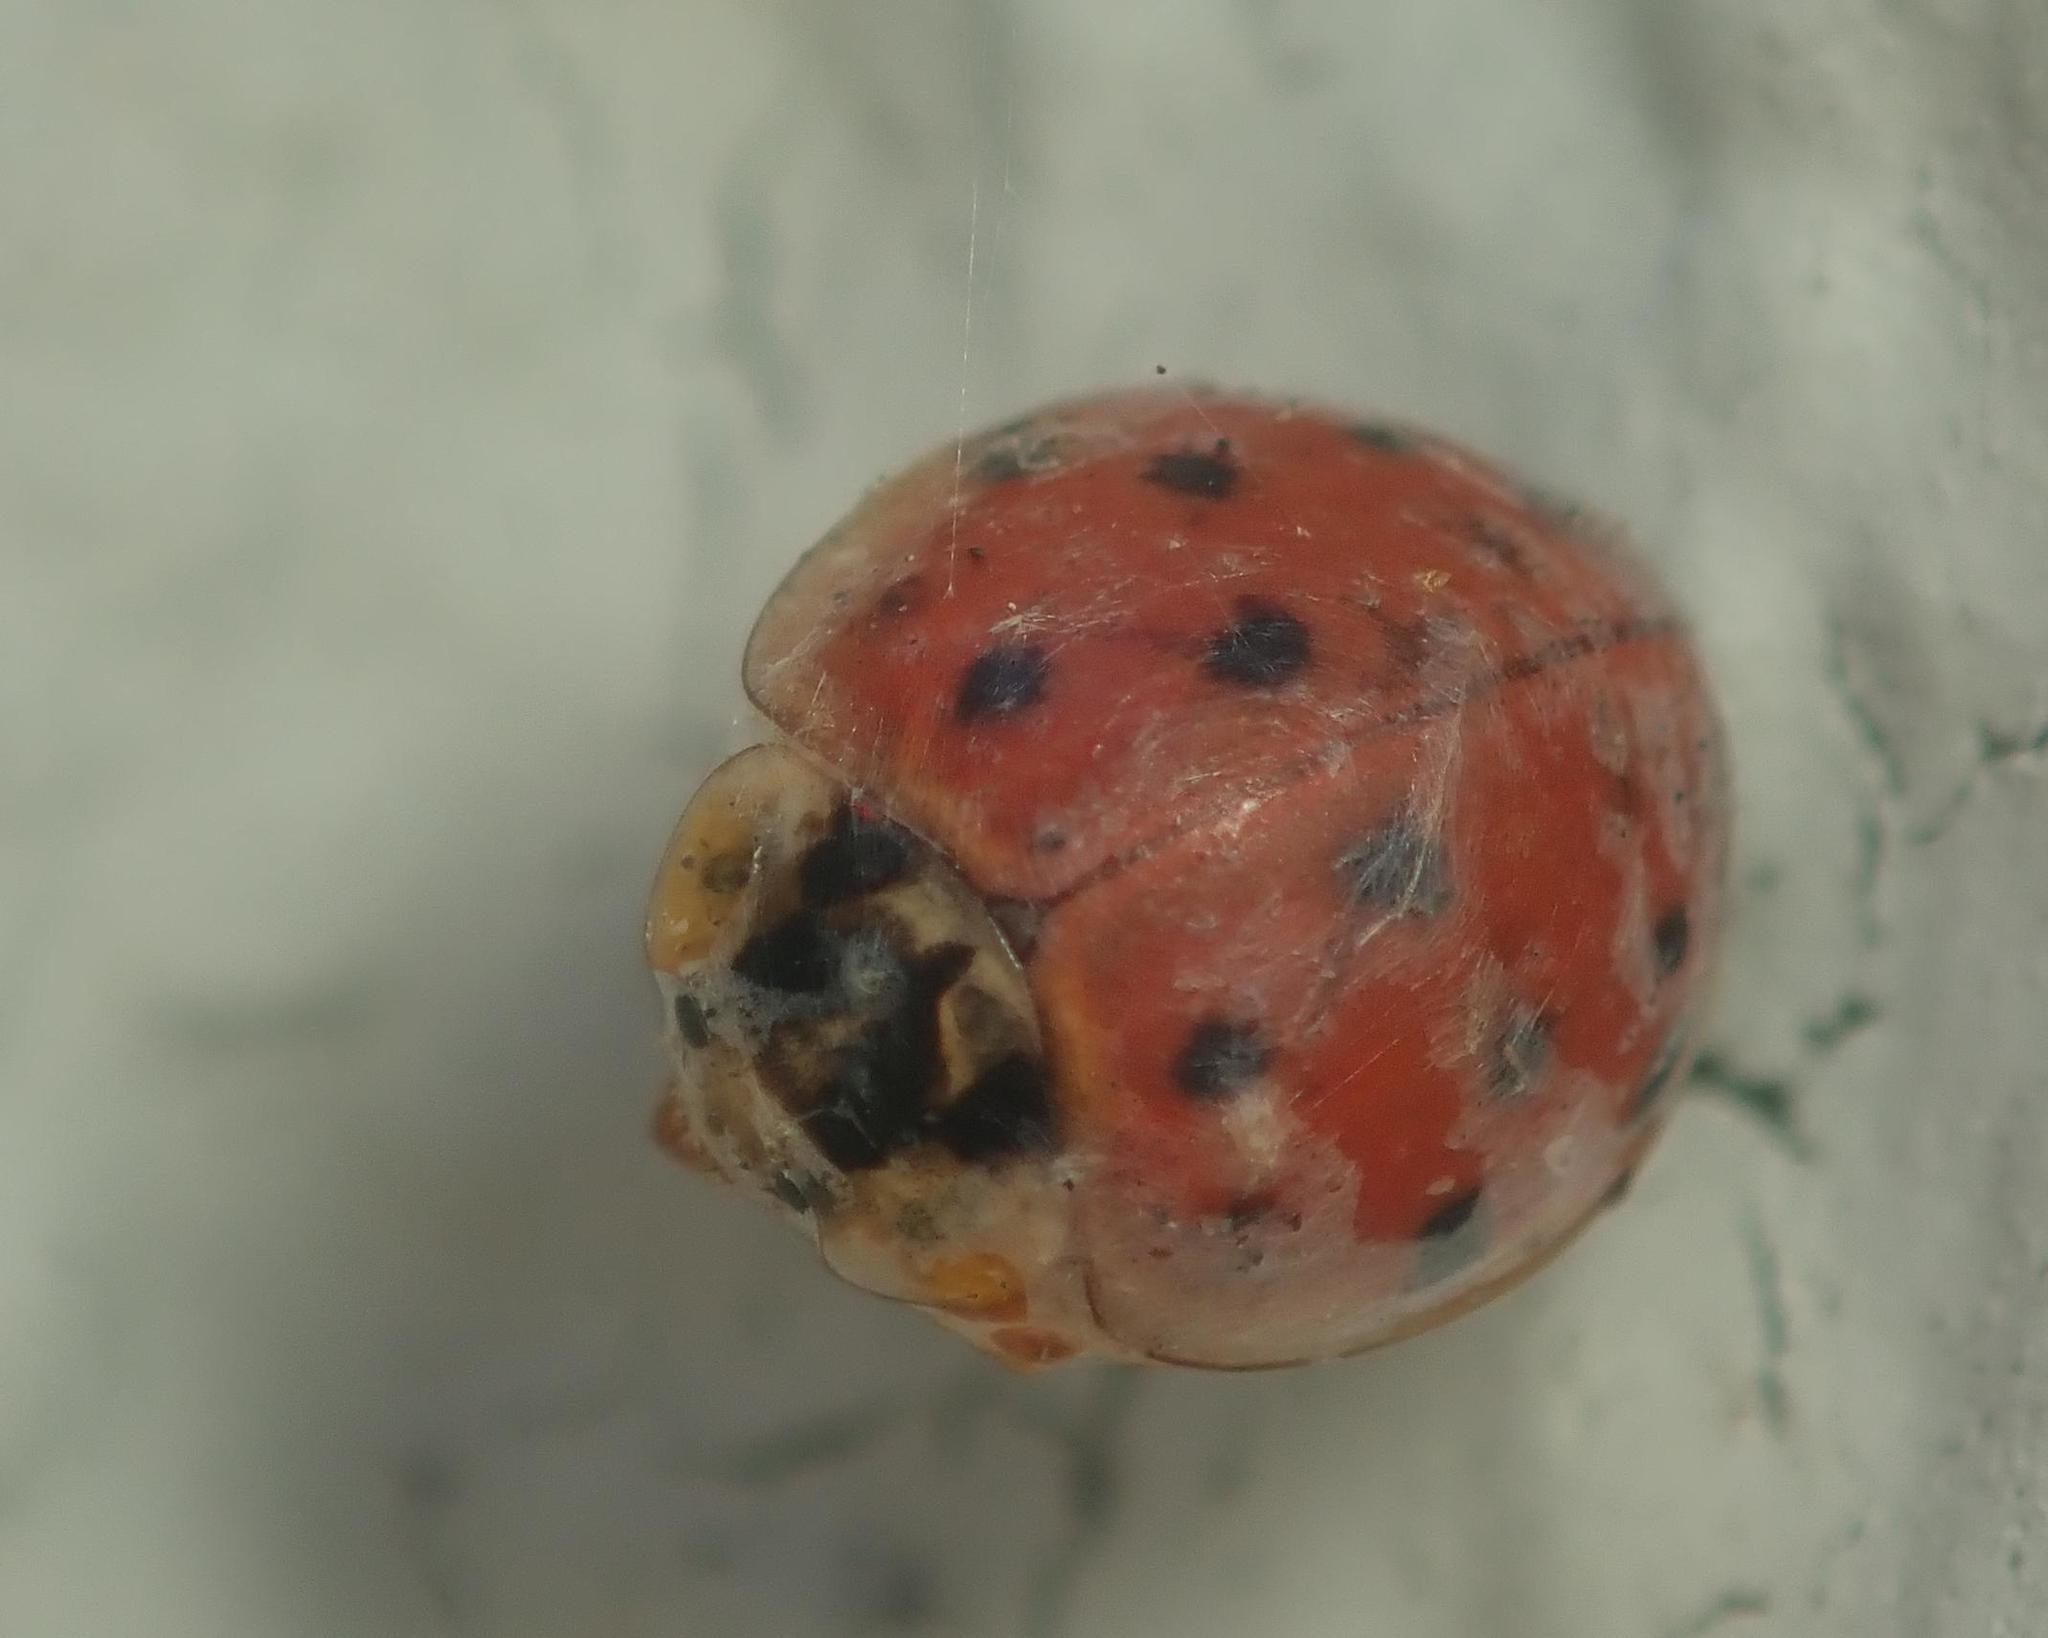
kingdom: Animalia
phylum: Arthropoda
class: Insecta
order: Coleoptera
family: Coccinellidae
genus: Harmonia
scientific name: Harmonia axyridis
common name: Harlequin ladybird
